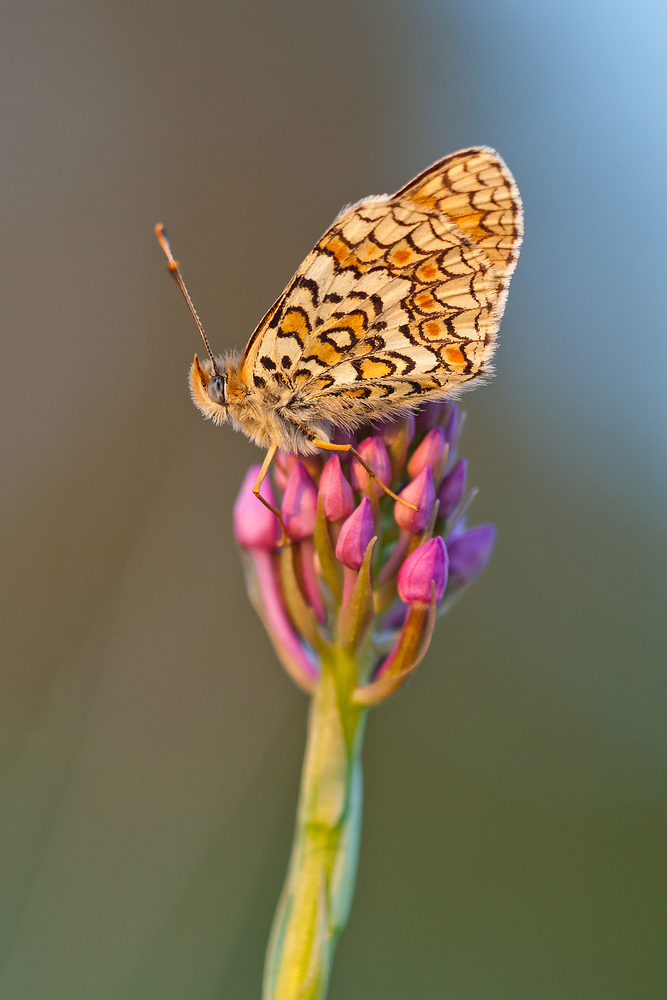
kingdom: Animalia
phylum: Arthropoda
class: Insecta
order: Lepidoptera
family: Nymphalidae
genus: Melitaea
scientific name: Melitaea phoebe
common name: Knapweed fritillary
